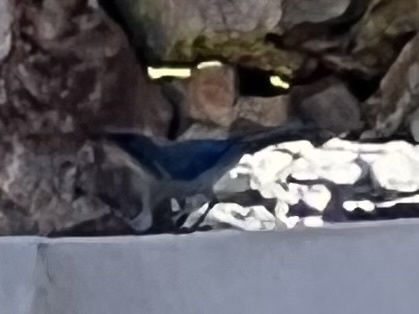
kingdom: Animalia
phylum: Chordata
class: Aves
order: Passeriformes
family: Corvidae
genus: Aphelocoma
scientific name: Aphelocoma woodhouseii
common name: Woodhouse's scrub-jay
